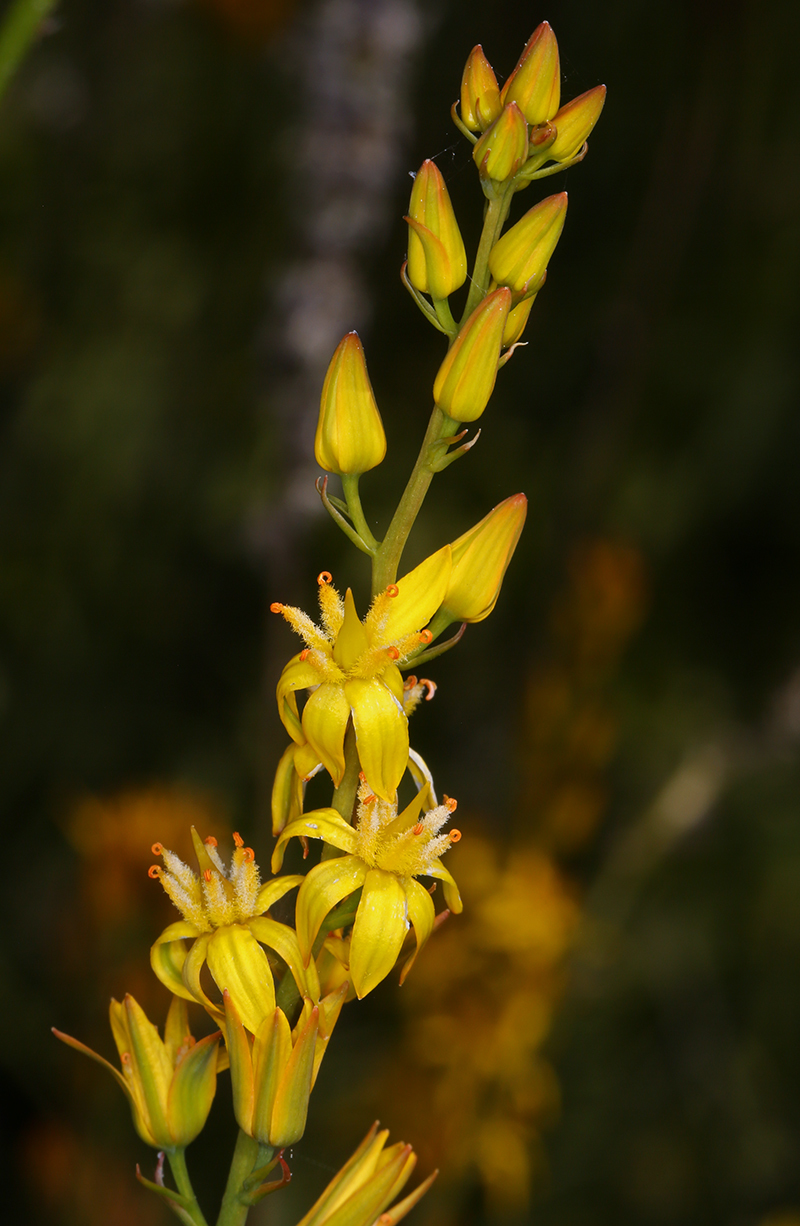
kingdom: Plantae
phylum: Tracheophyta
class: Liliopsida
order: Dioscoreales
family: Nartheciaceae
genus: Narthecium
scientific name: Narthecium californicum
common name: California bog-asphodel
